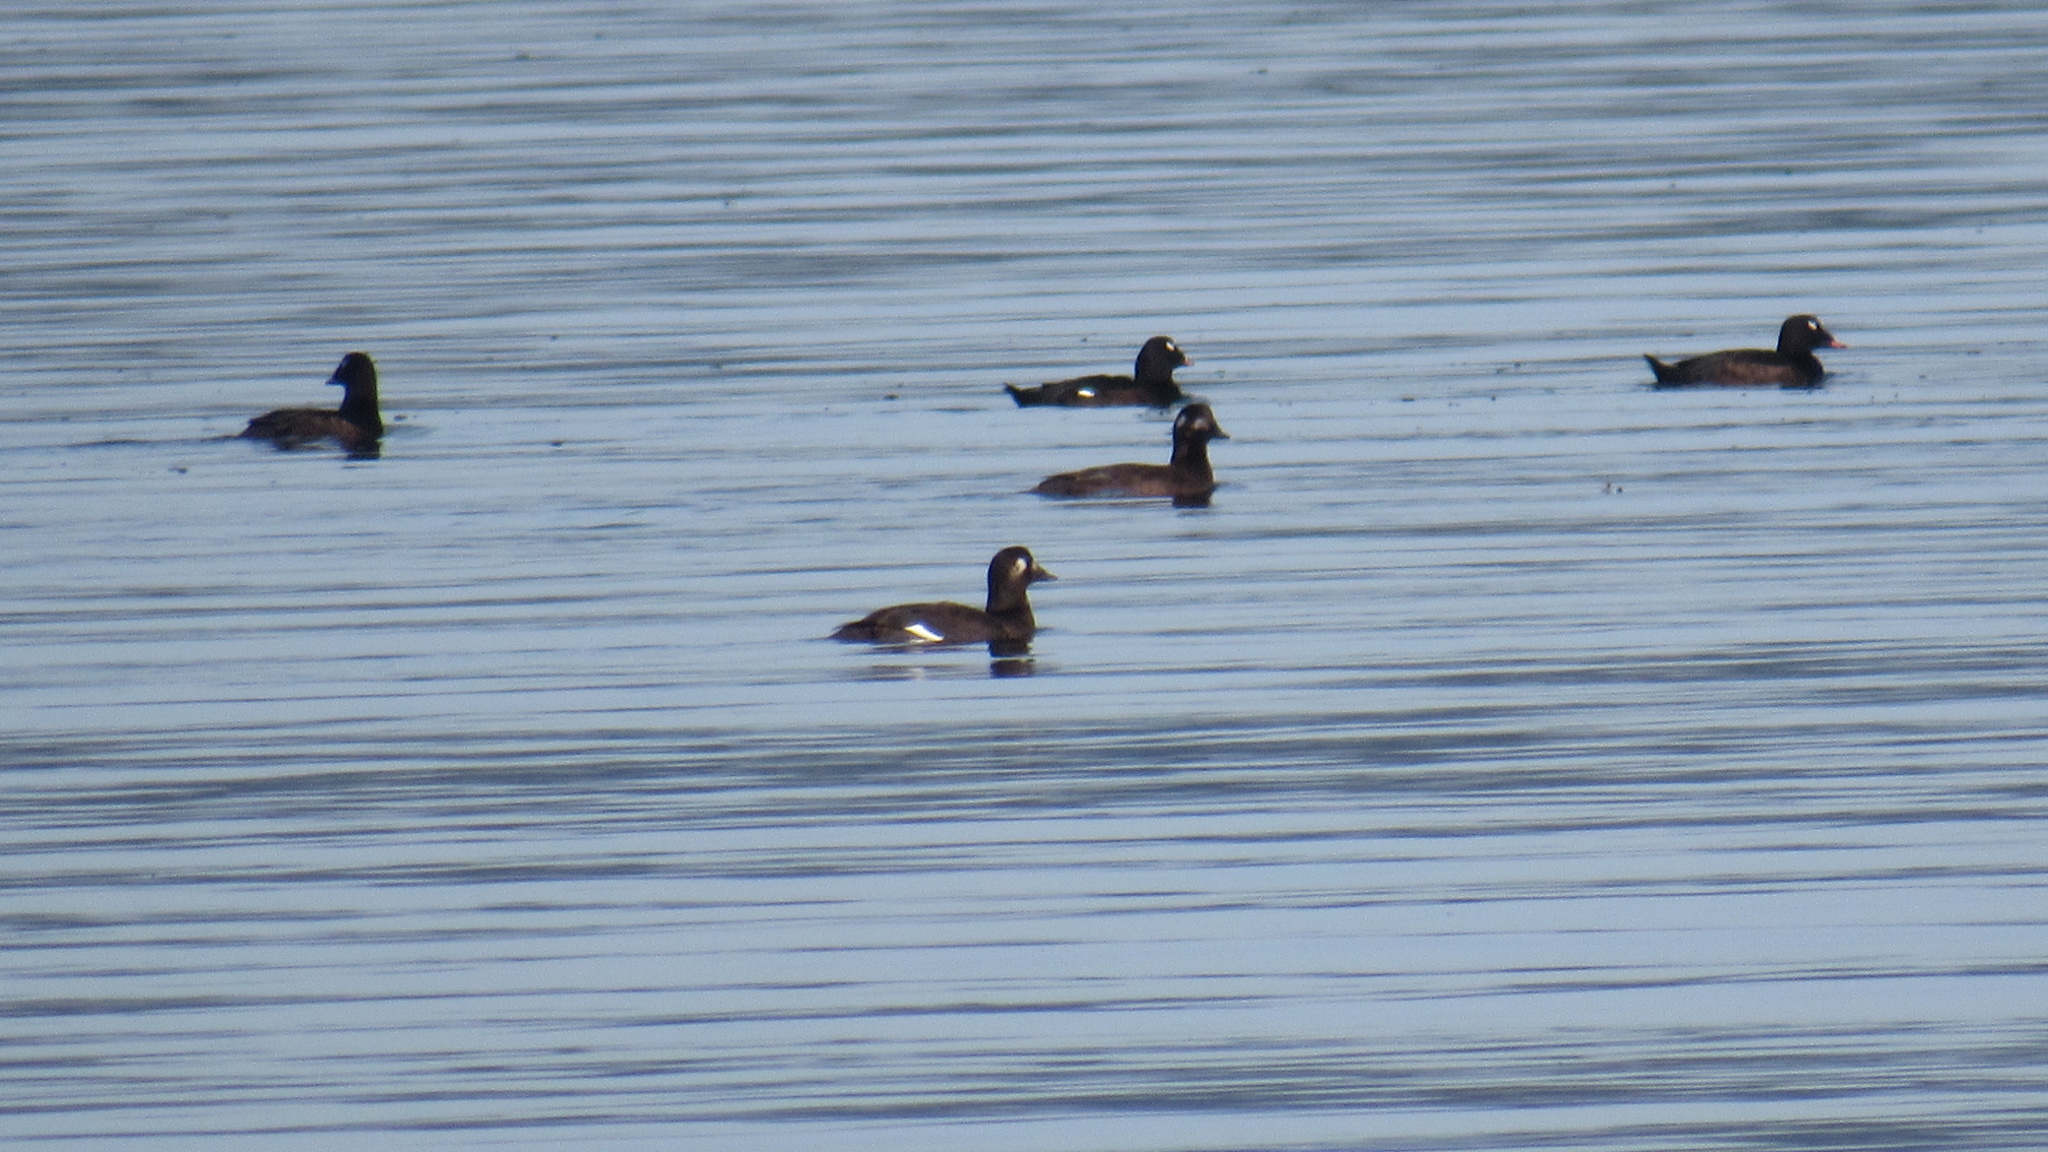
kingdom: Animalia
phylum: Chordata
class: Aves
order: Anseriformes
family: Anatidae
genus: Melanitta
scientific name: Melanitta deglandi
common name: White-winged scoter
